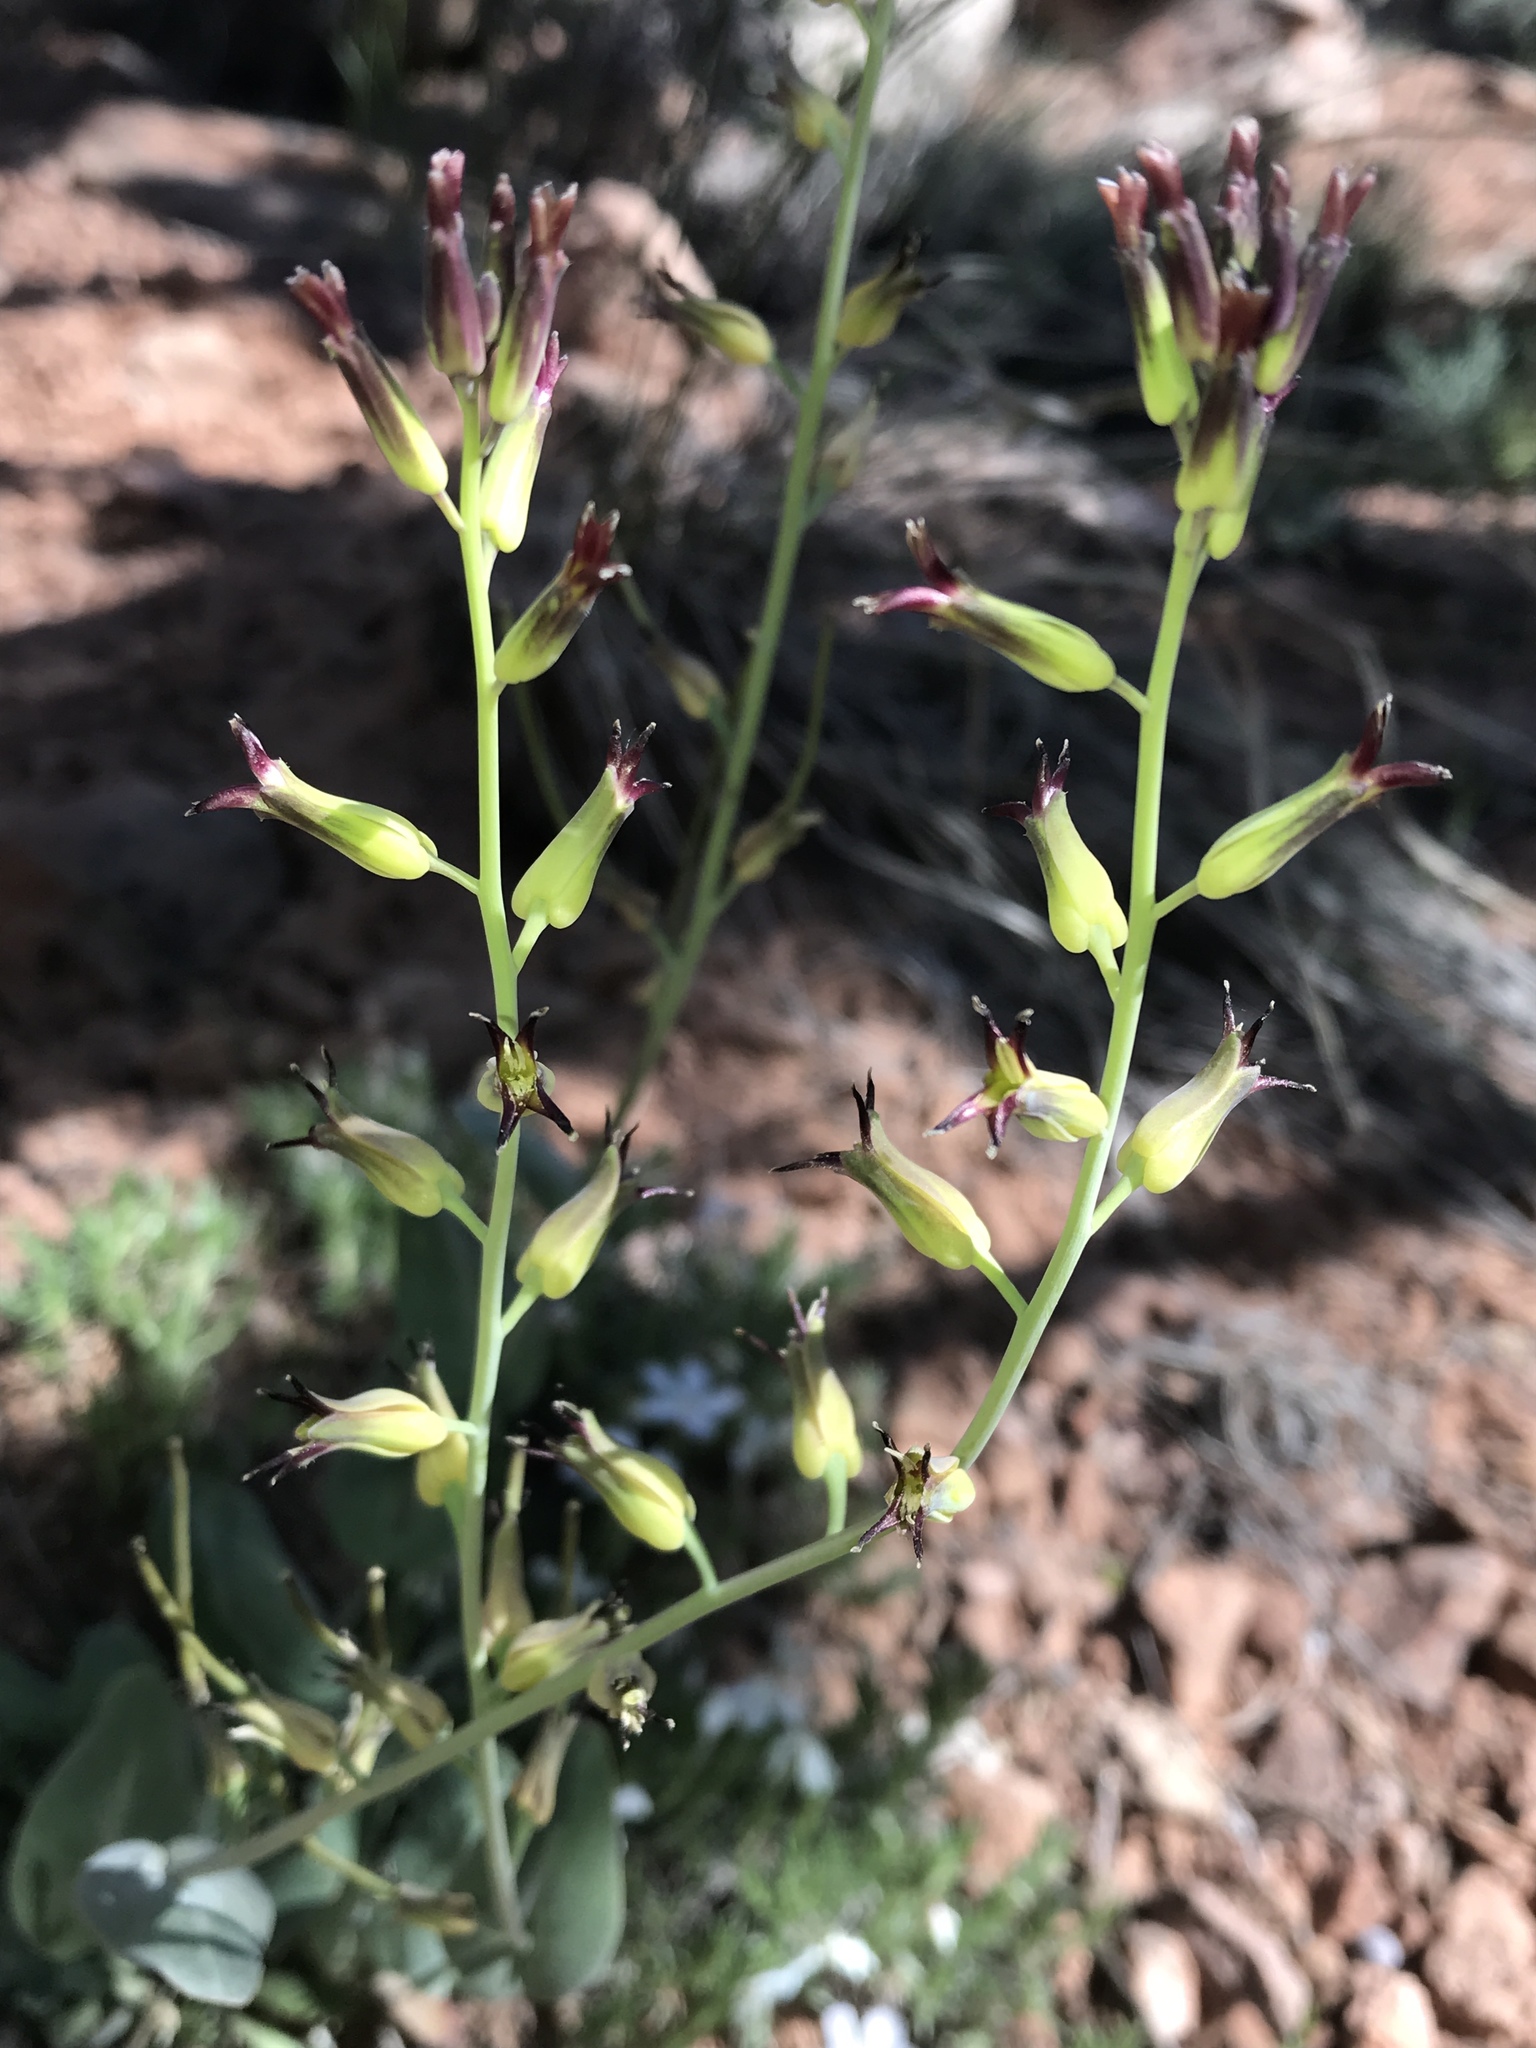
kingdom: Plantae
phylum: Tracheophyta
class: Magnoliopsida
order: Brassicales
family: Brassicaceae
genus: Streptanthus
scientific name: Streptanthus cordatus
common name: Heart-leaf jewel-flower
